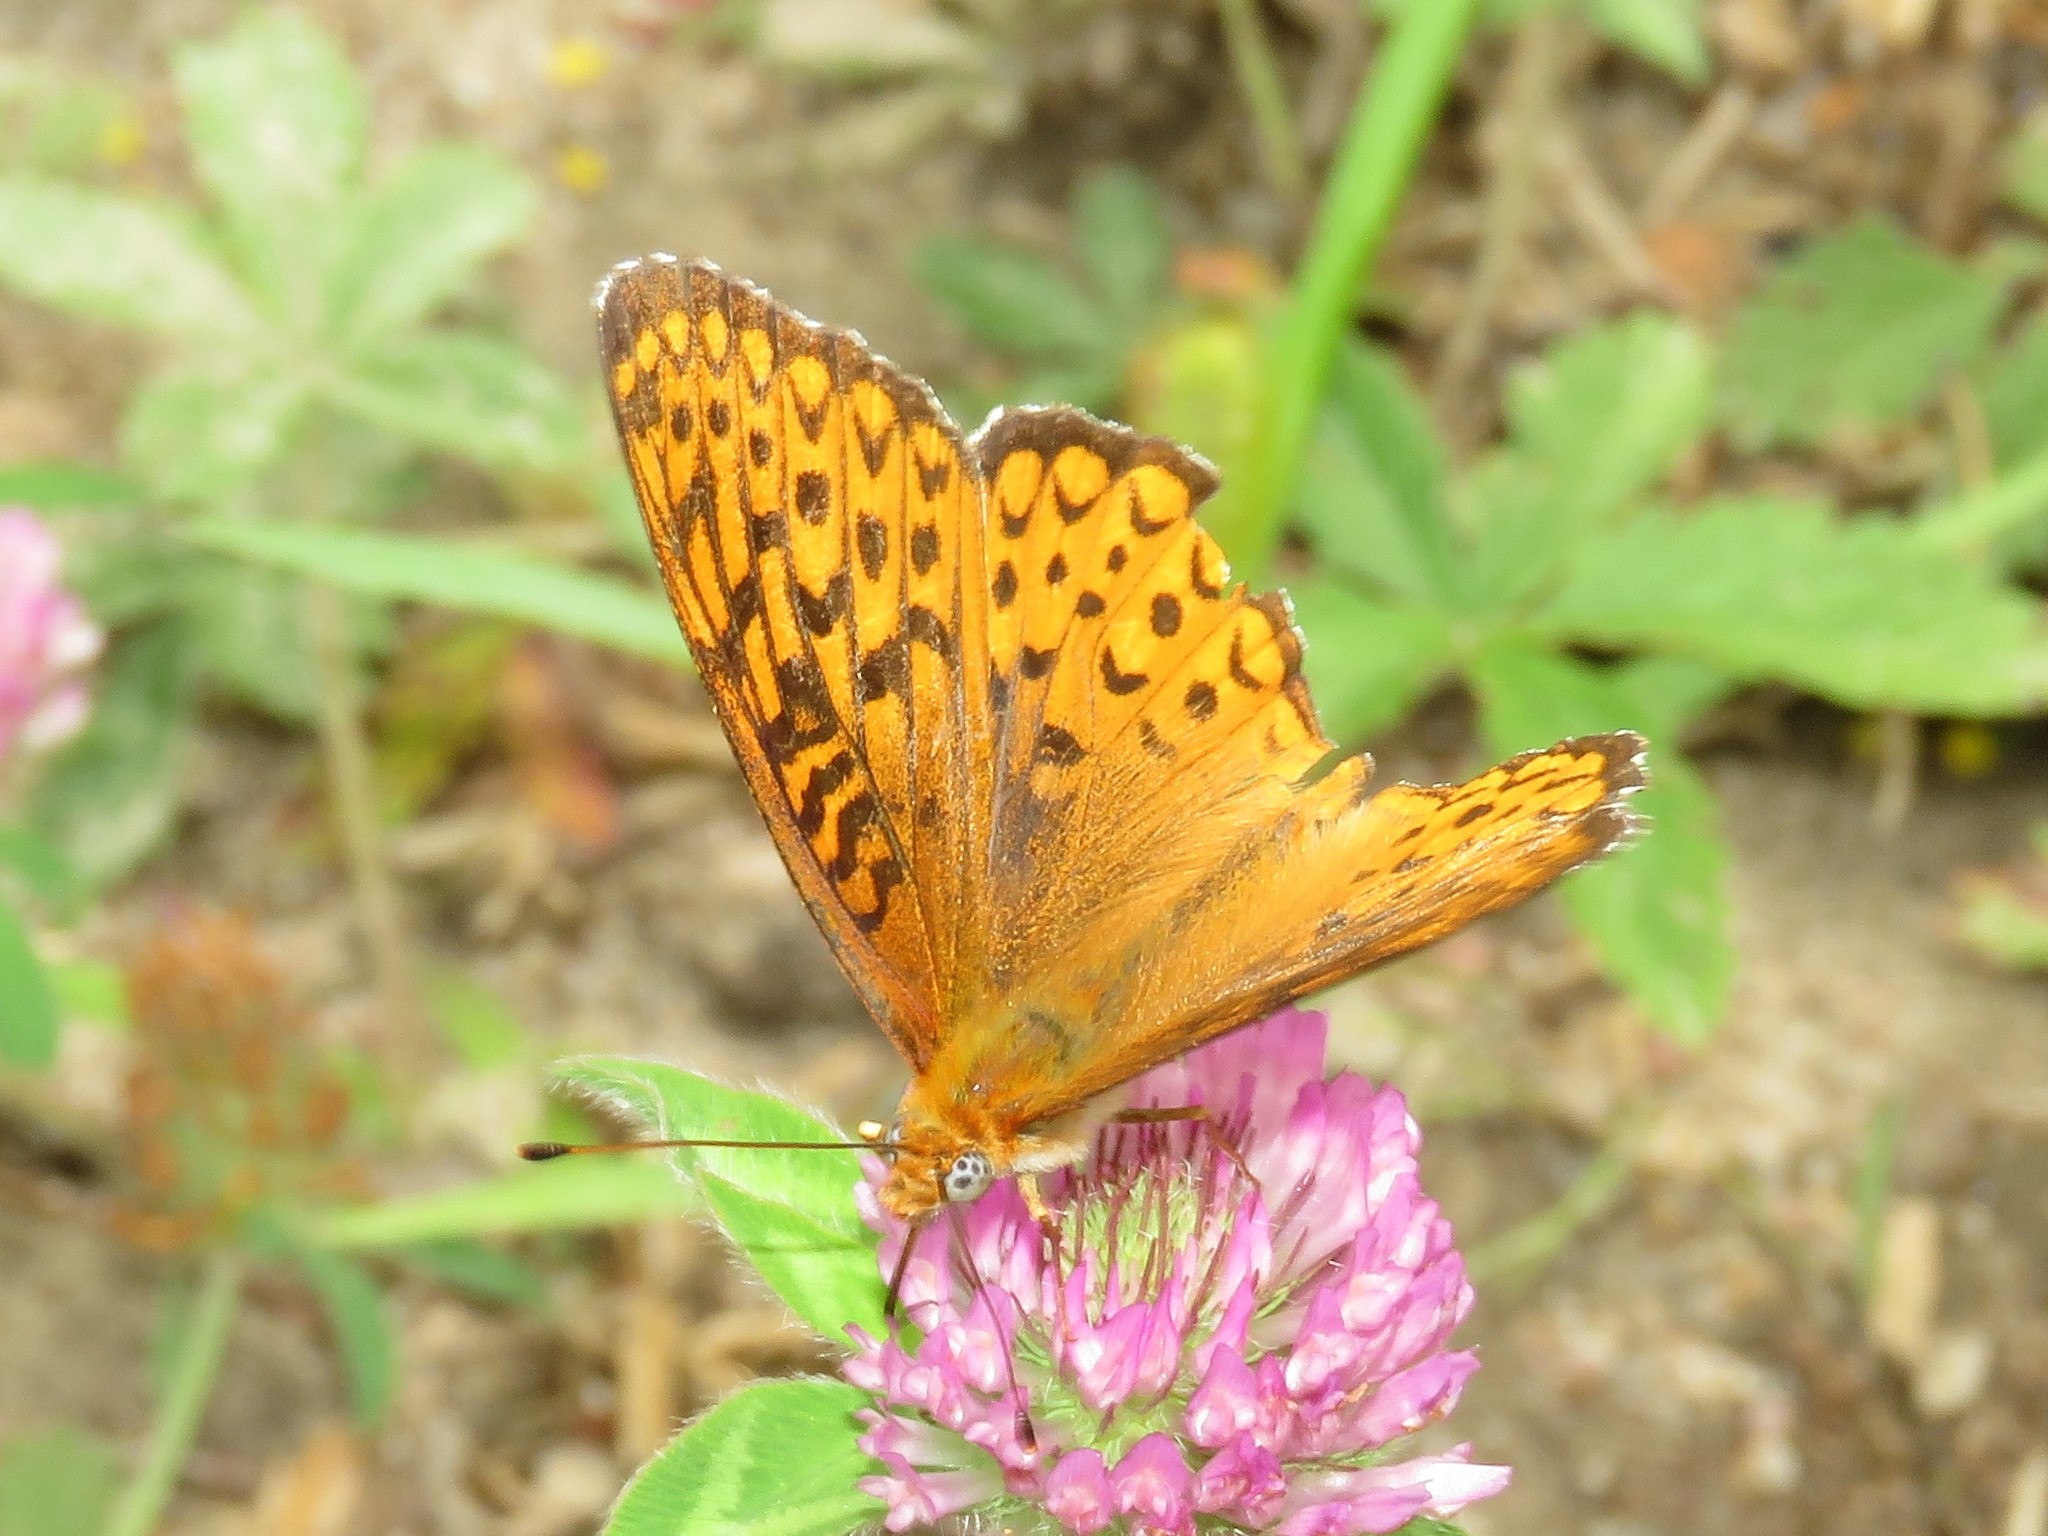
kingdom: Animalia
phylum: Arthropoda
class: Insecta
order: Lepidoptera
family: Nymphalidae
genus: Speyeria
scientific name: Speyeria atlantis
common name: Atlantis fritillary
